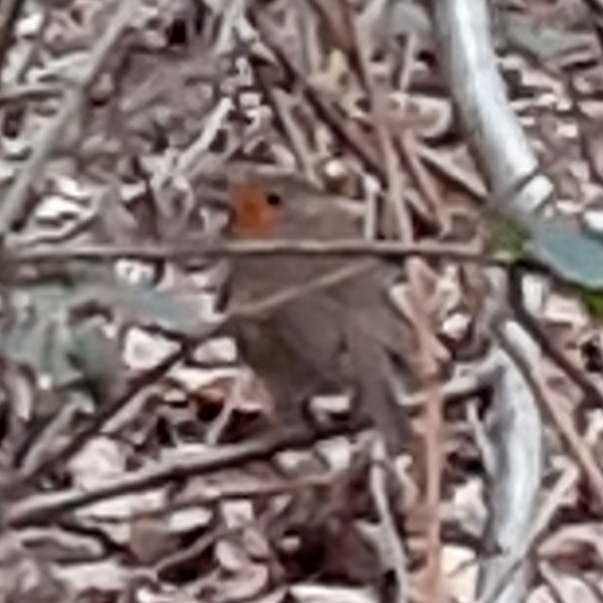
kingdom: Animalia
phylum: Chordata
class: Aves
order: Passeriformes
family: Muscicapidae
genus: Erithacus
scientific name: Erithacus rubecula
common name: European robin
